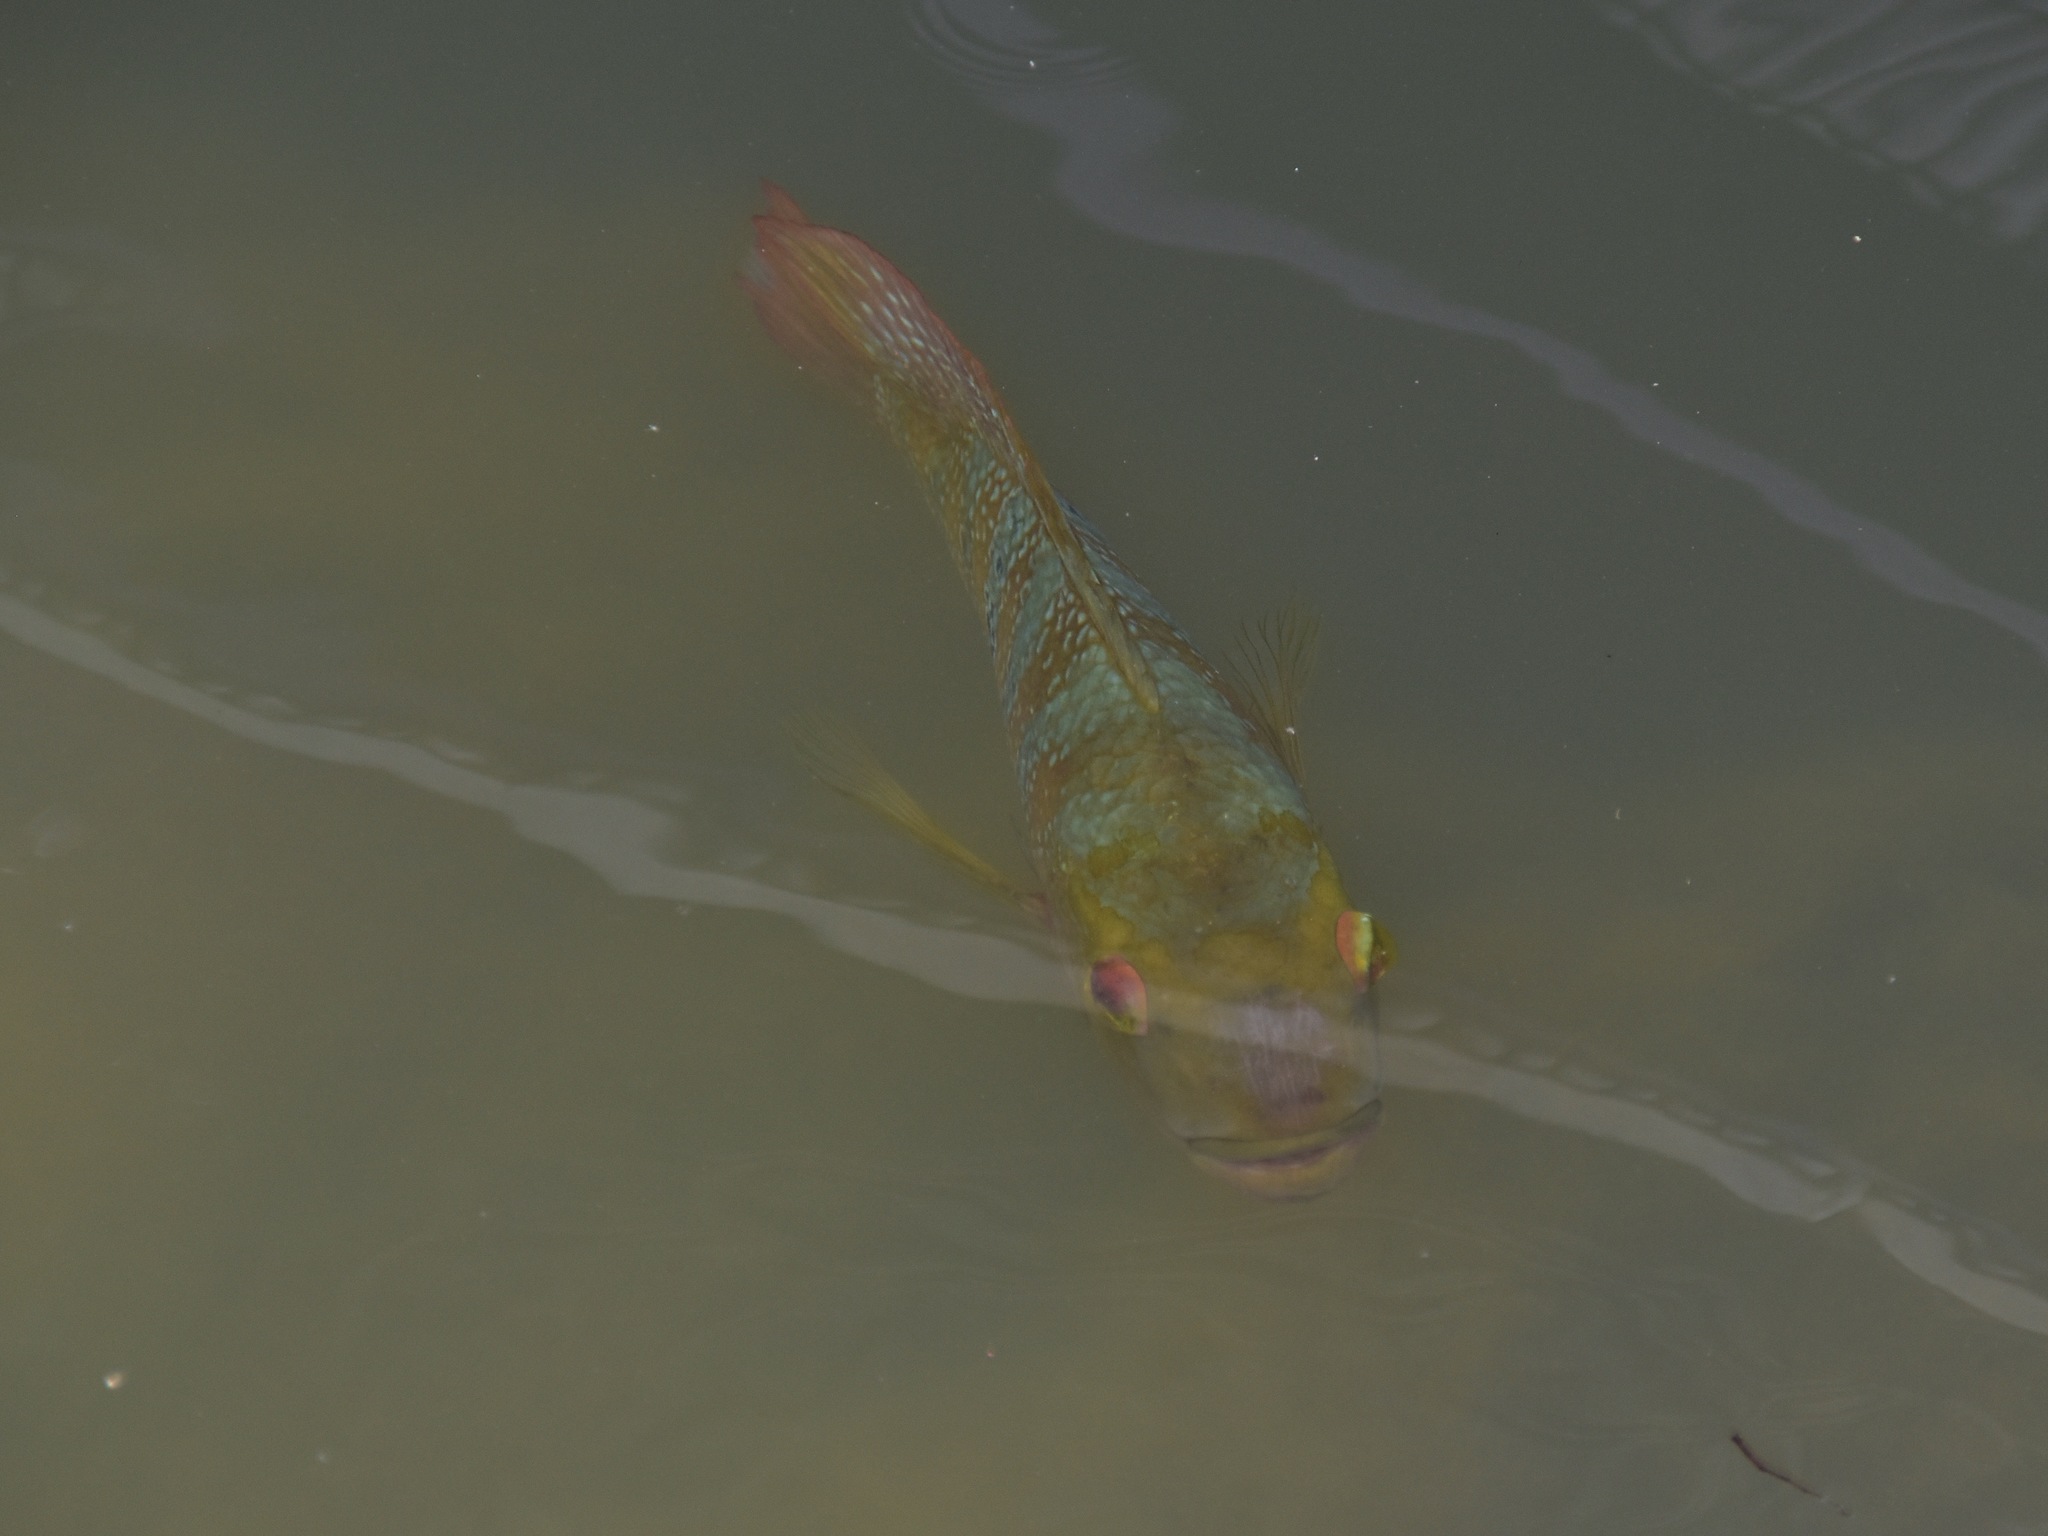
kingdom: Animalia
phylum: Chordata
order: Perciformes
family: Cichlidae
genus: Mayaheros
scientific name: Mayaheros urophthalmus
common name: Mayan cichlid
